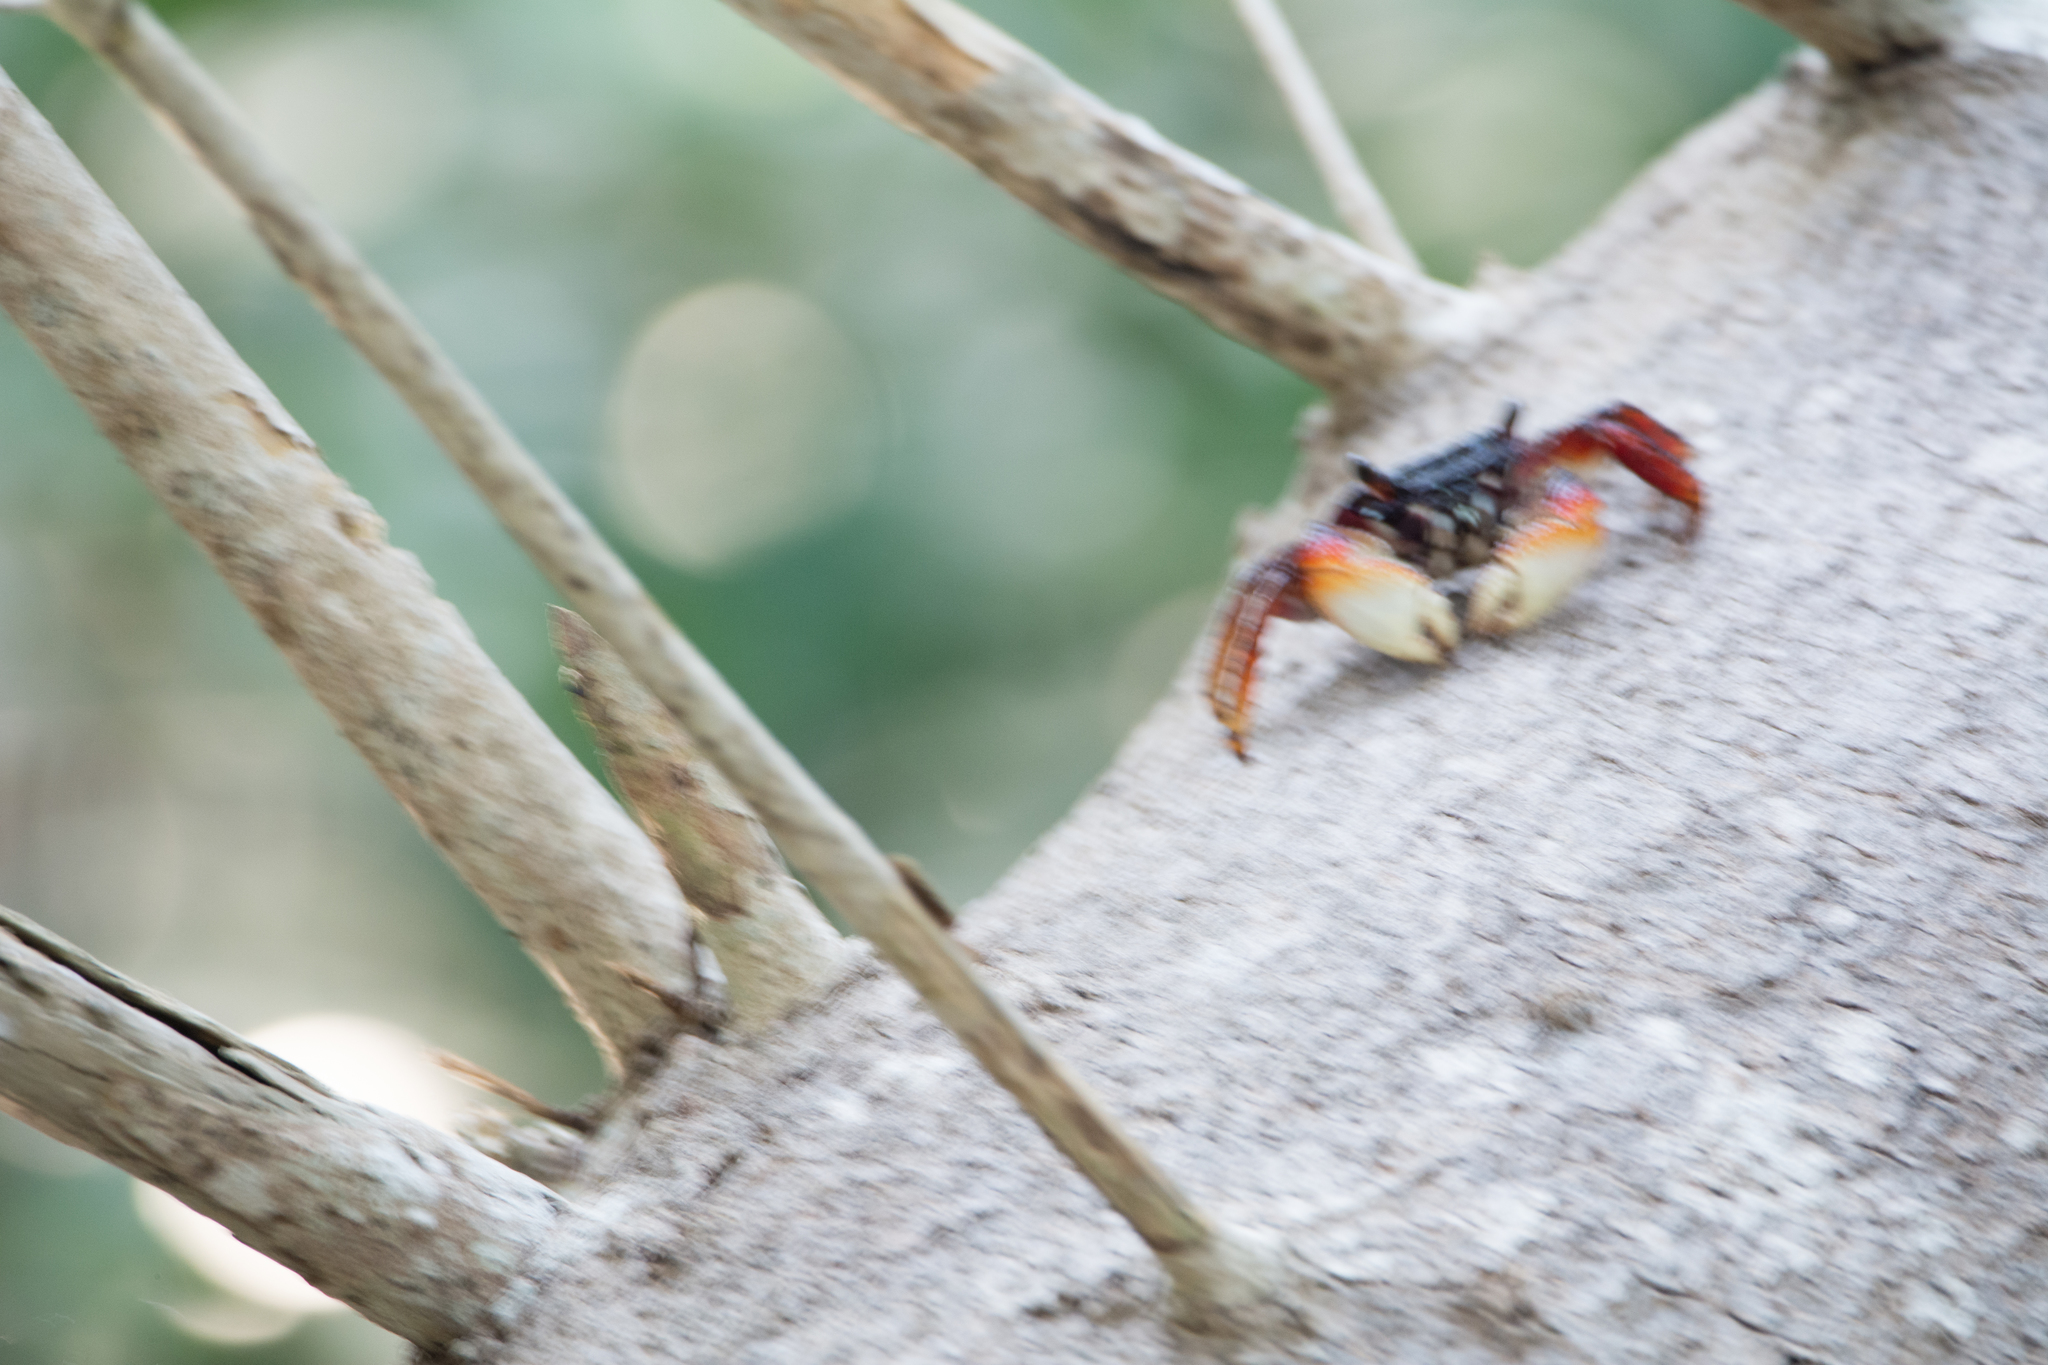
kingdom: Animalia
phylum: Arthropoda
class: Malacostraca
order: Decapoda
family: Grapsidae
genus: Goniopsis
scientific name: Goniopsis cruentata
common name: Mangrove crab
